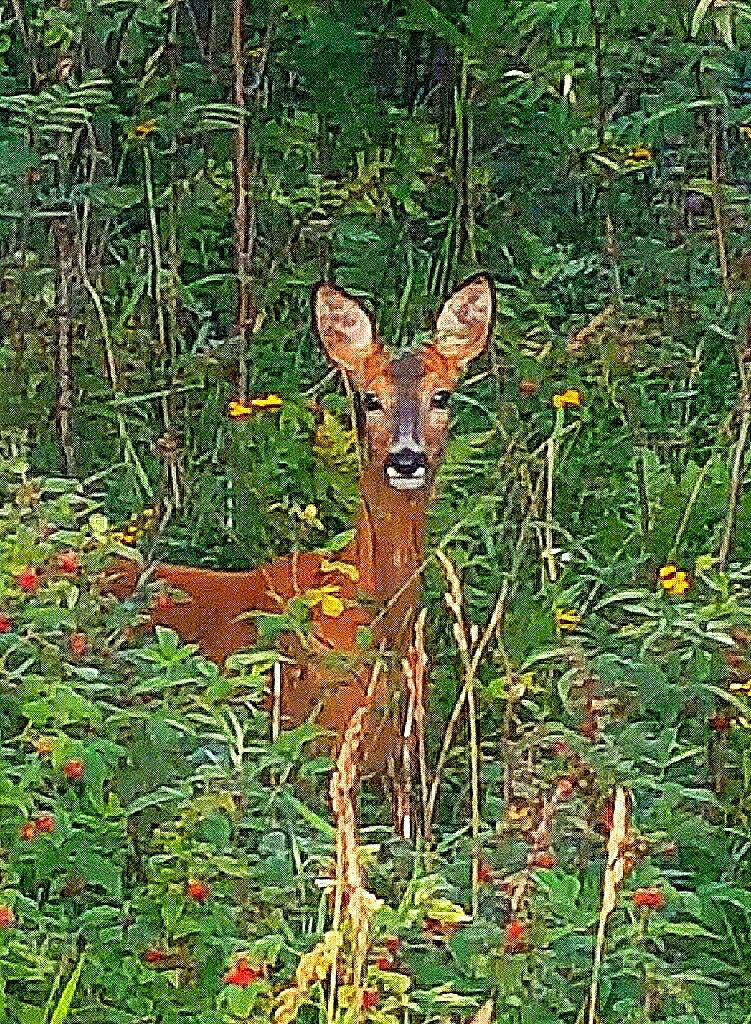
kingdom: Animalia
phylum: Chordata
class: Mammalia
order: Artiodactyla
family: Cervidae
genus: Capreolus
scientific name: Capreolus capreolus
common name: Western roe deer
